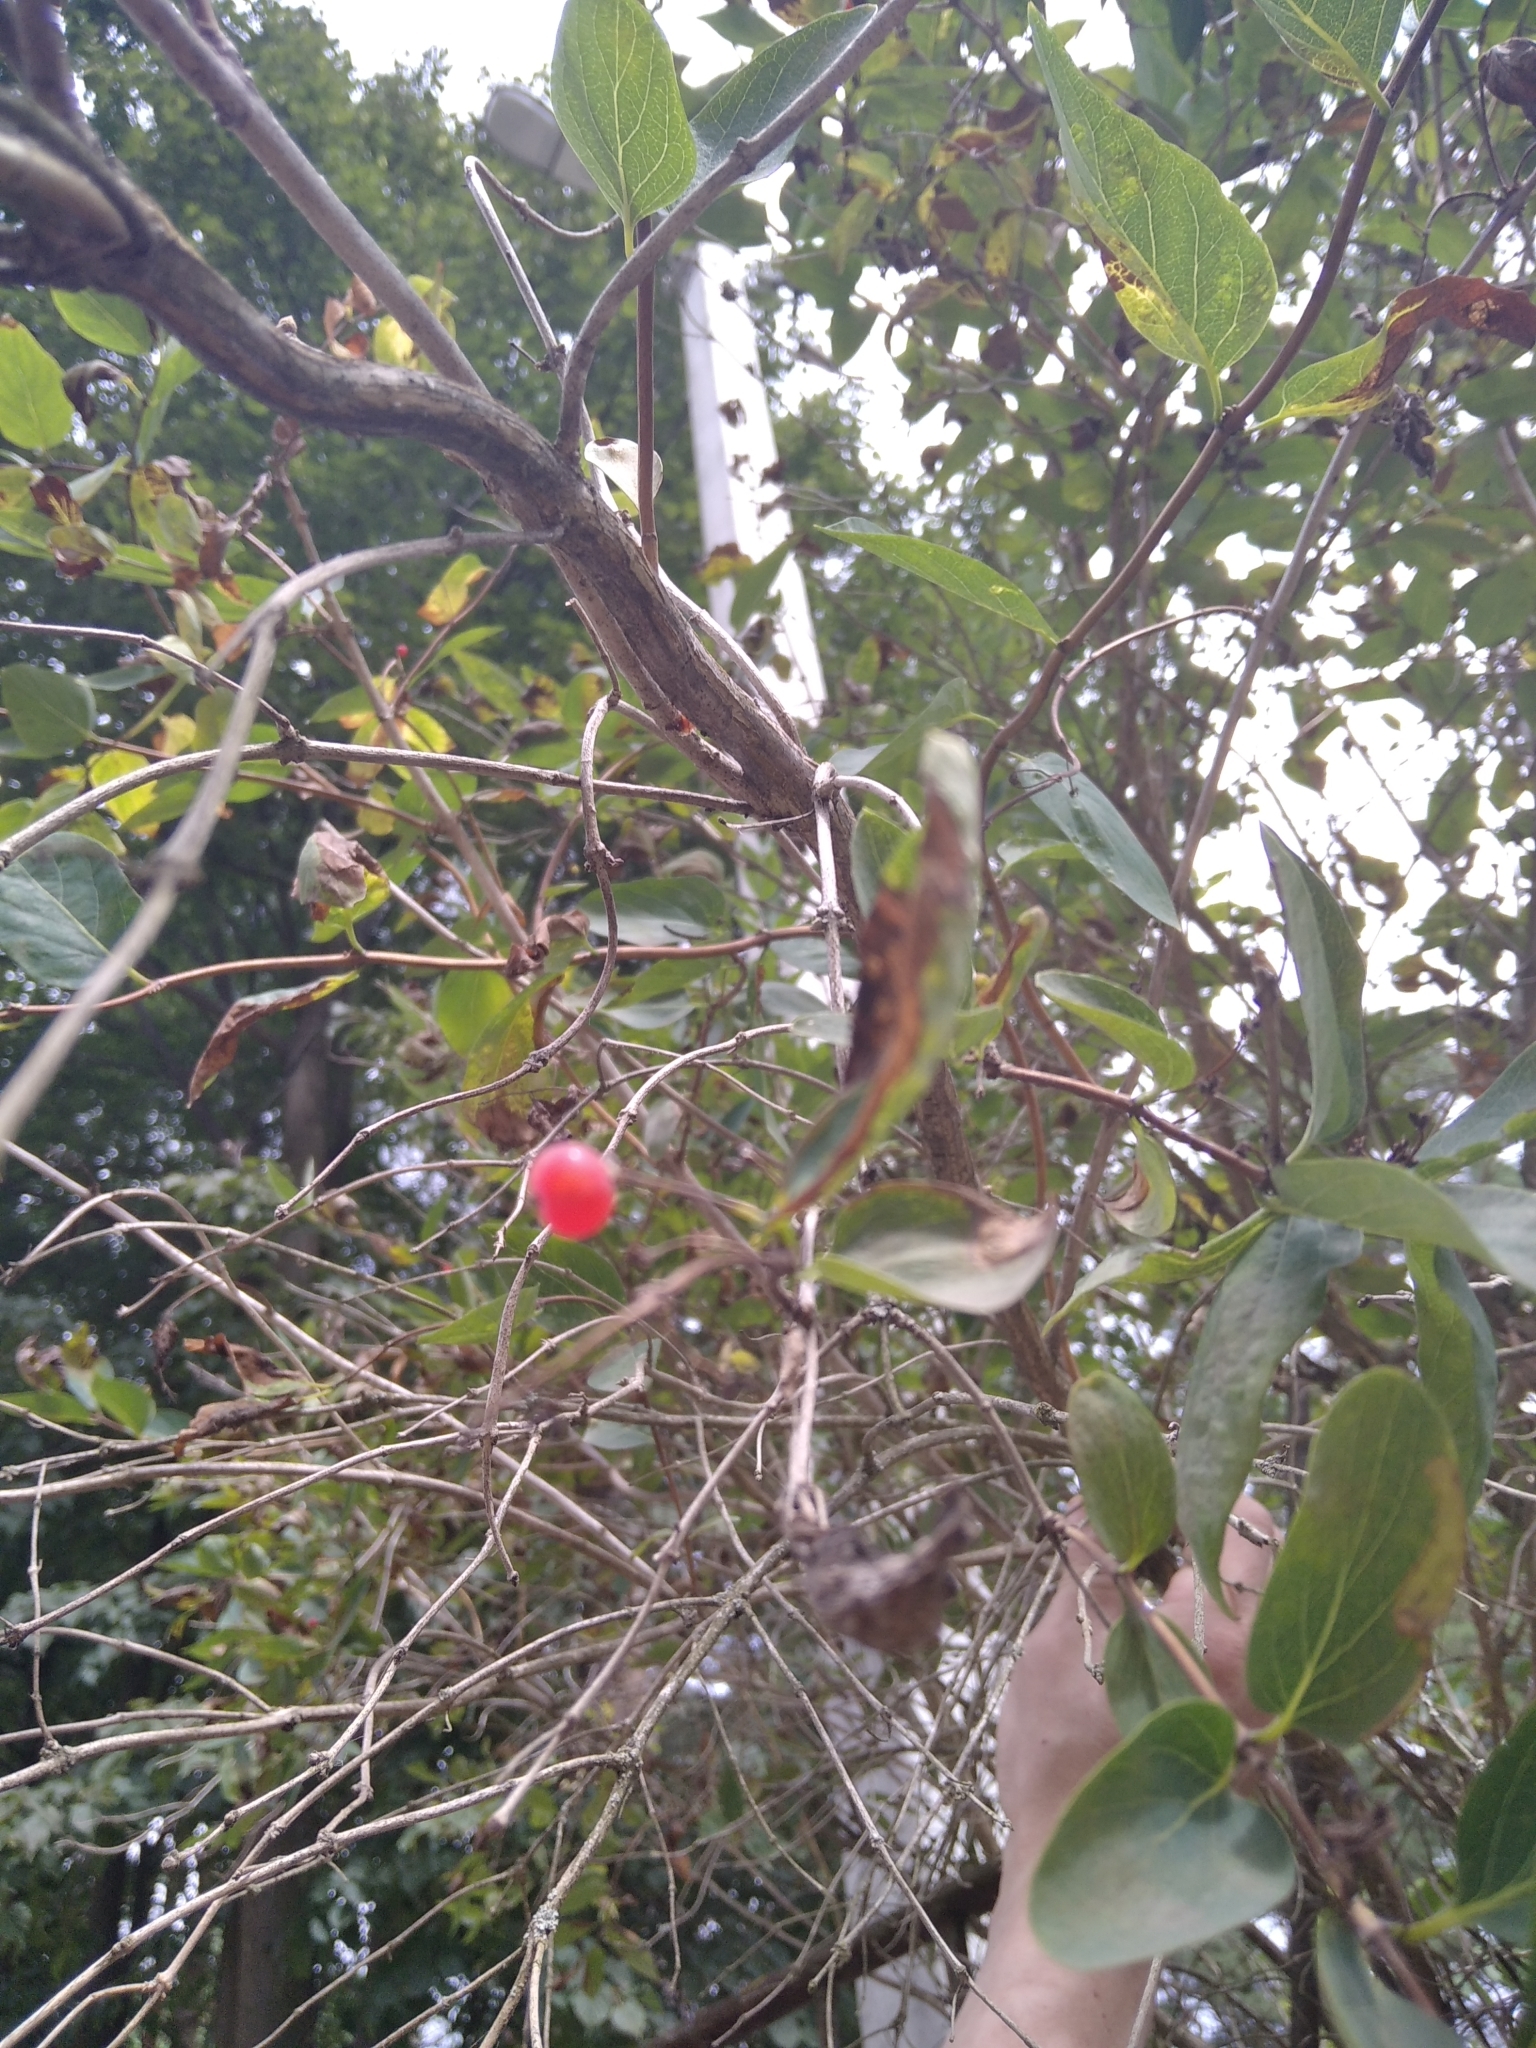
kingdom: Plantae
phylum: Tracheophyta
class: Magnoliopsida
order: Dipsacales
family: Caprifoliaceae
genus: Lonicera
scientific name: Lonicera tatarica
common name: Tatarian honeysuckle
